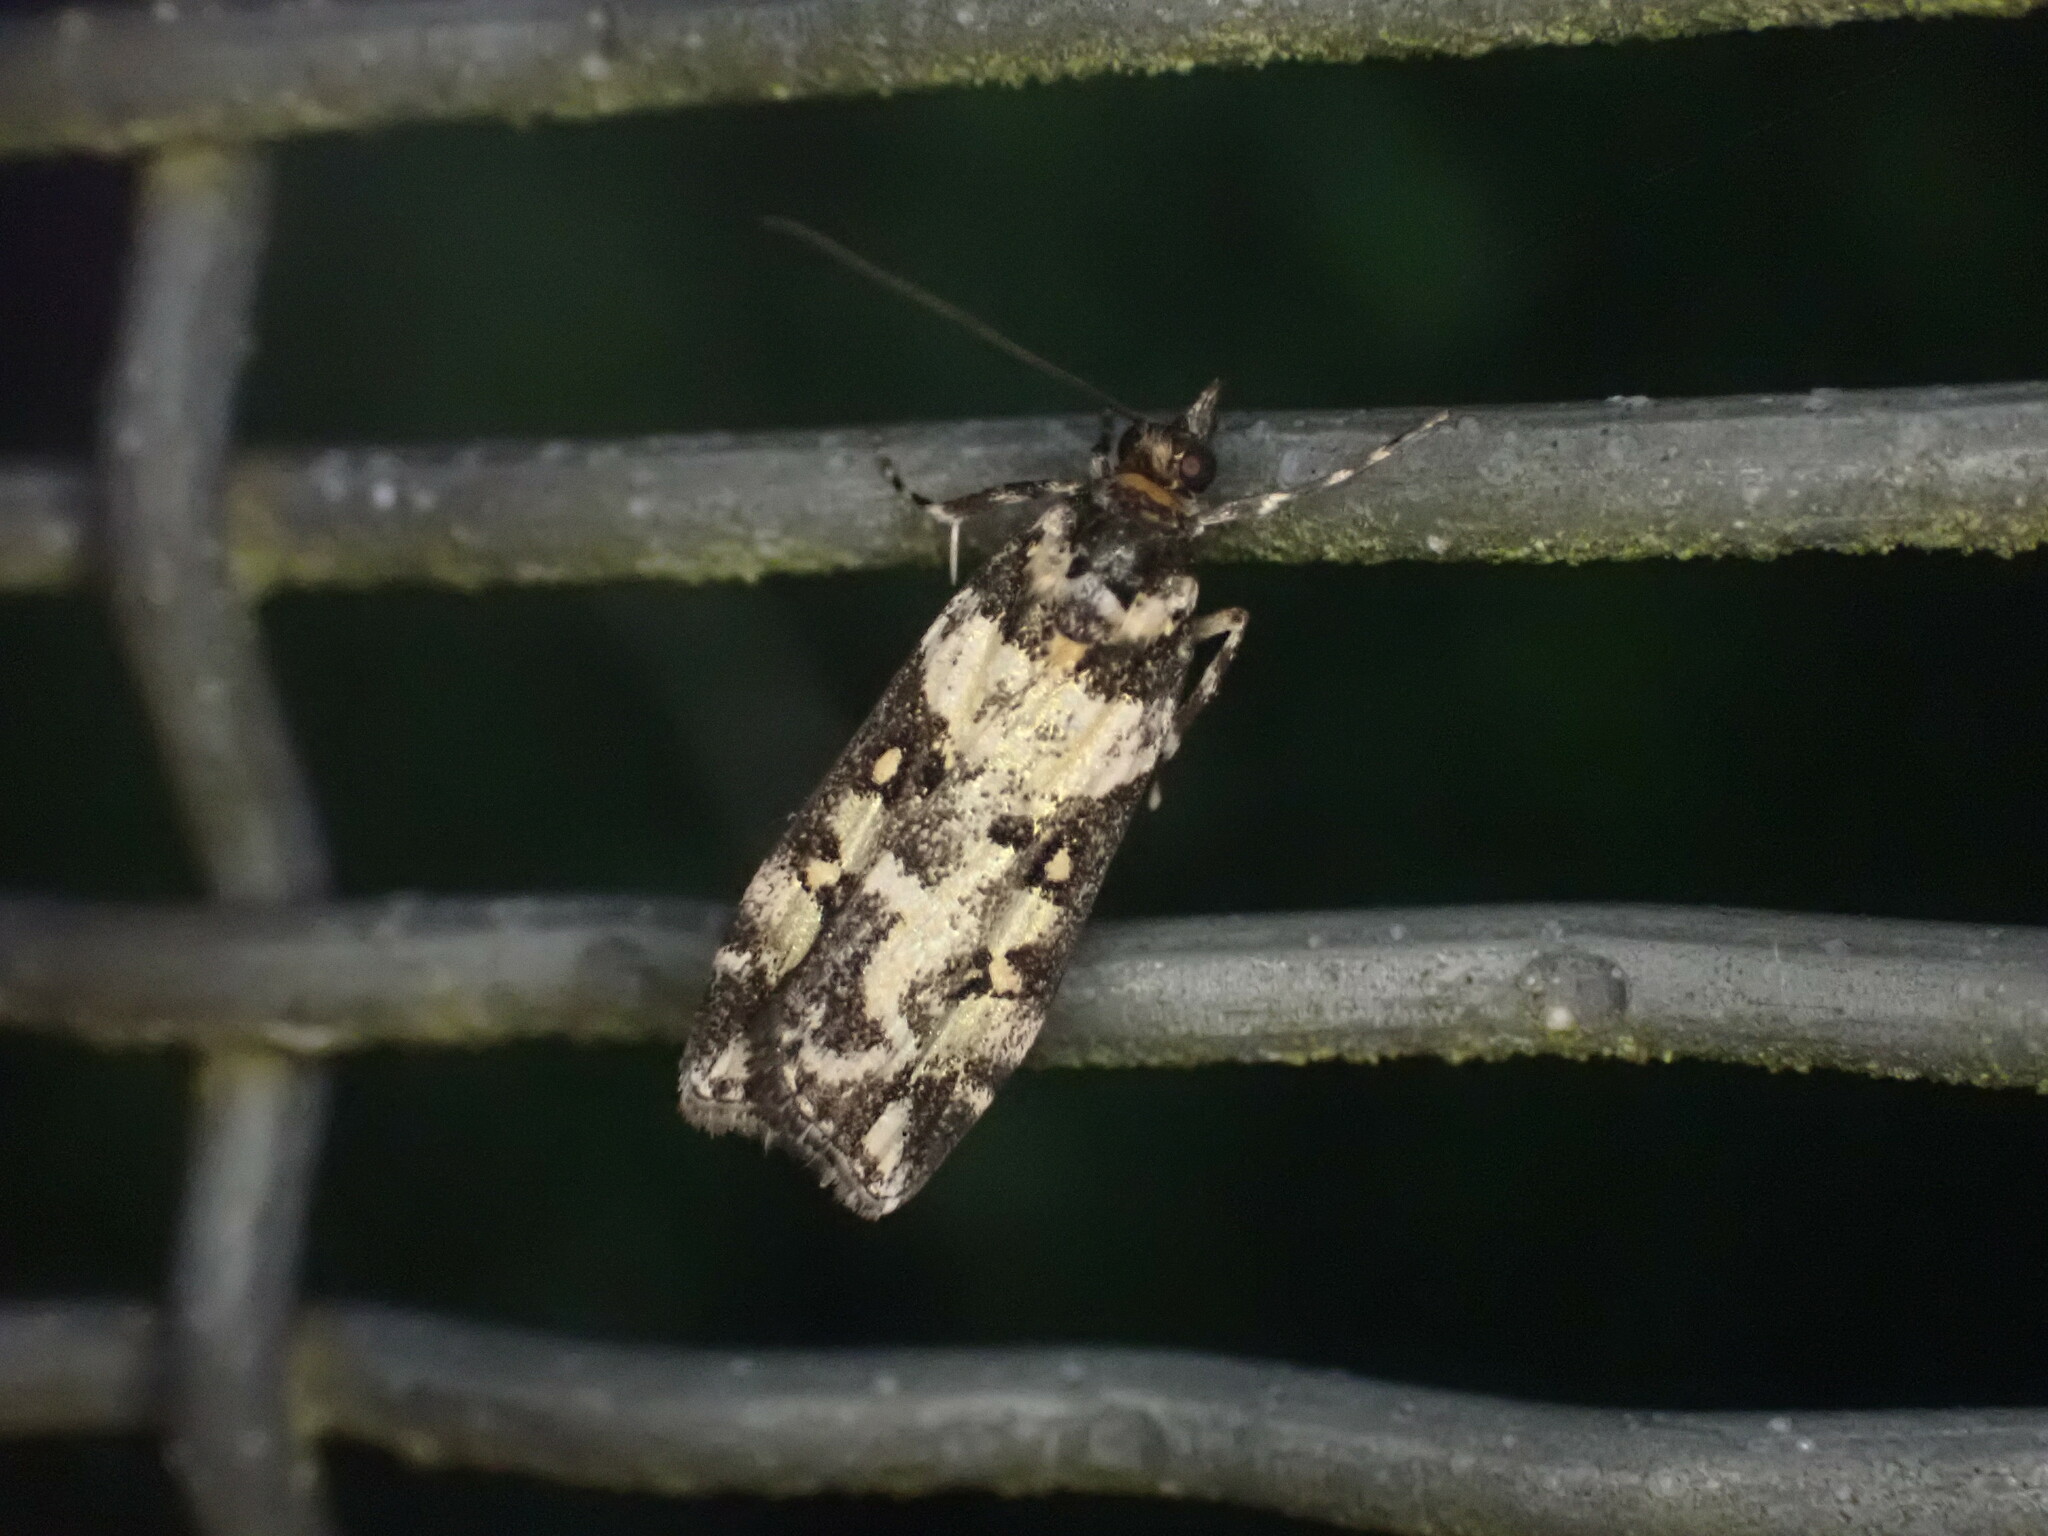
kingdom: Animalia
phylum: Arthropoda
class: Insecta
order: Lepidoptera
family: Crambidae
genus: Eudonia
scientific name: Eudonia diphtheralis
